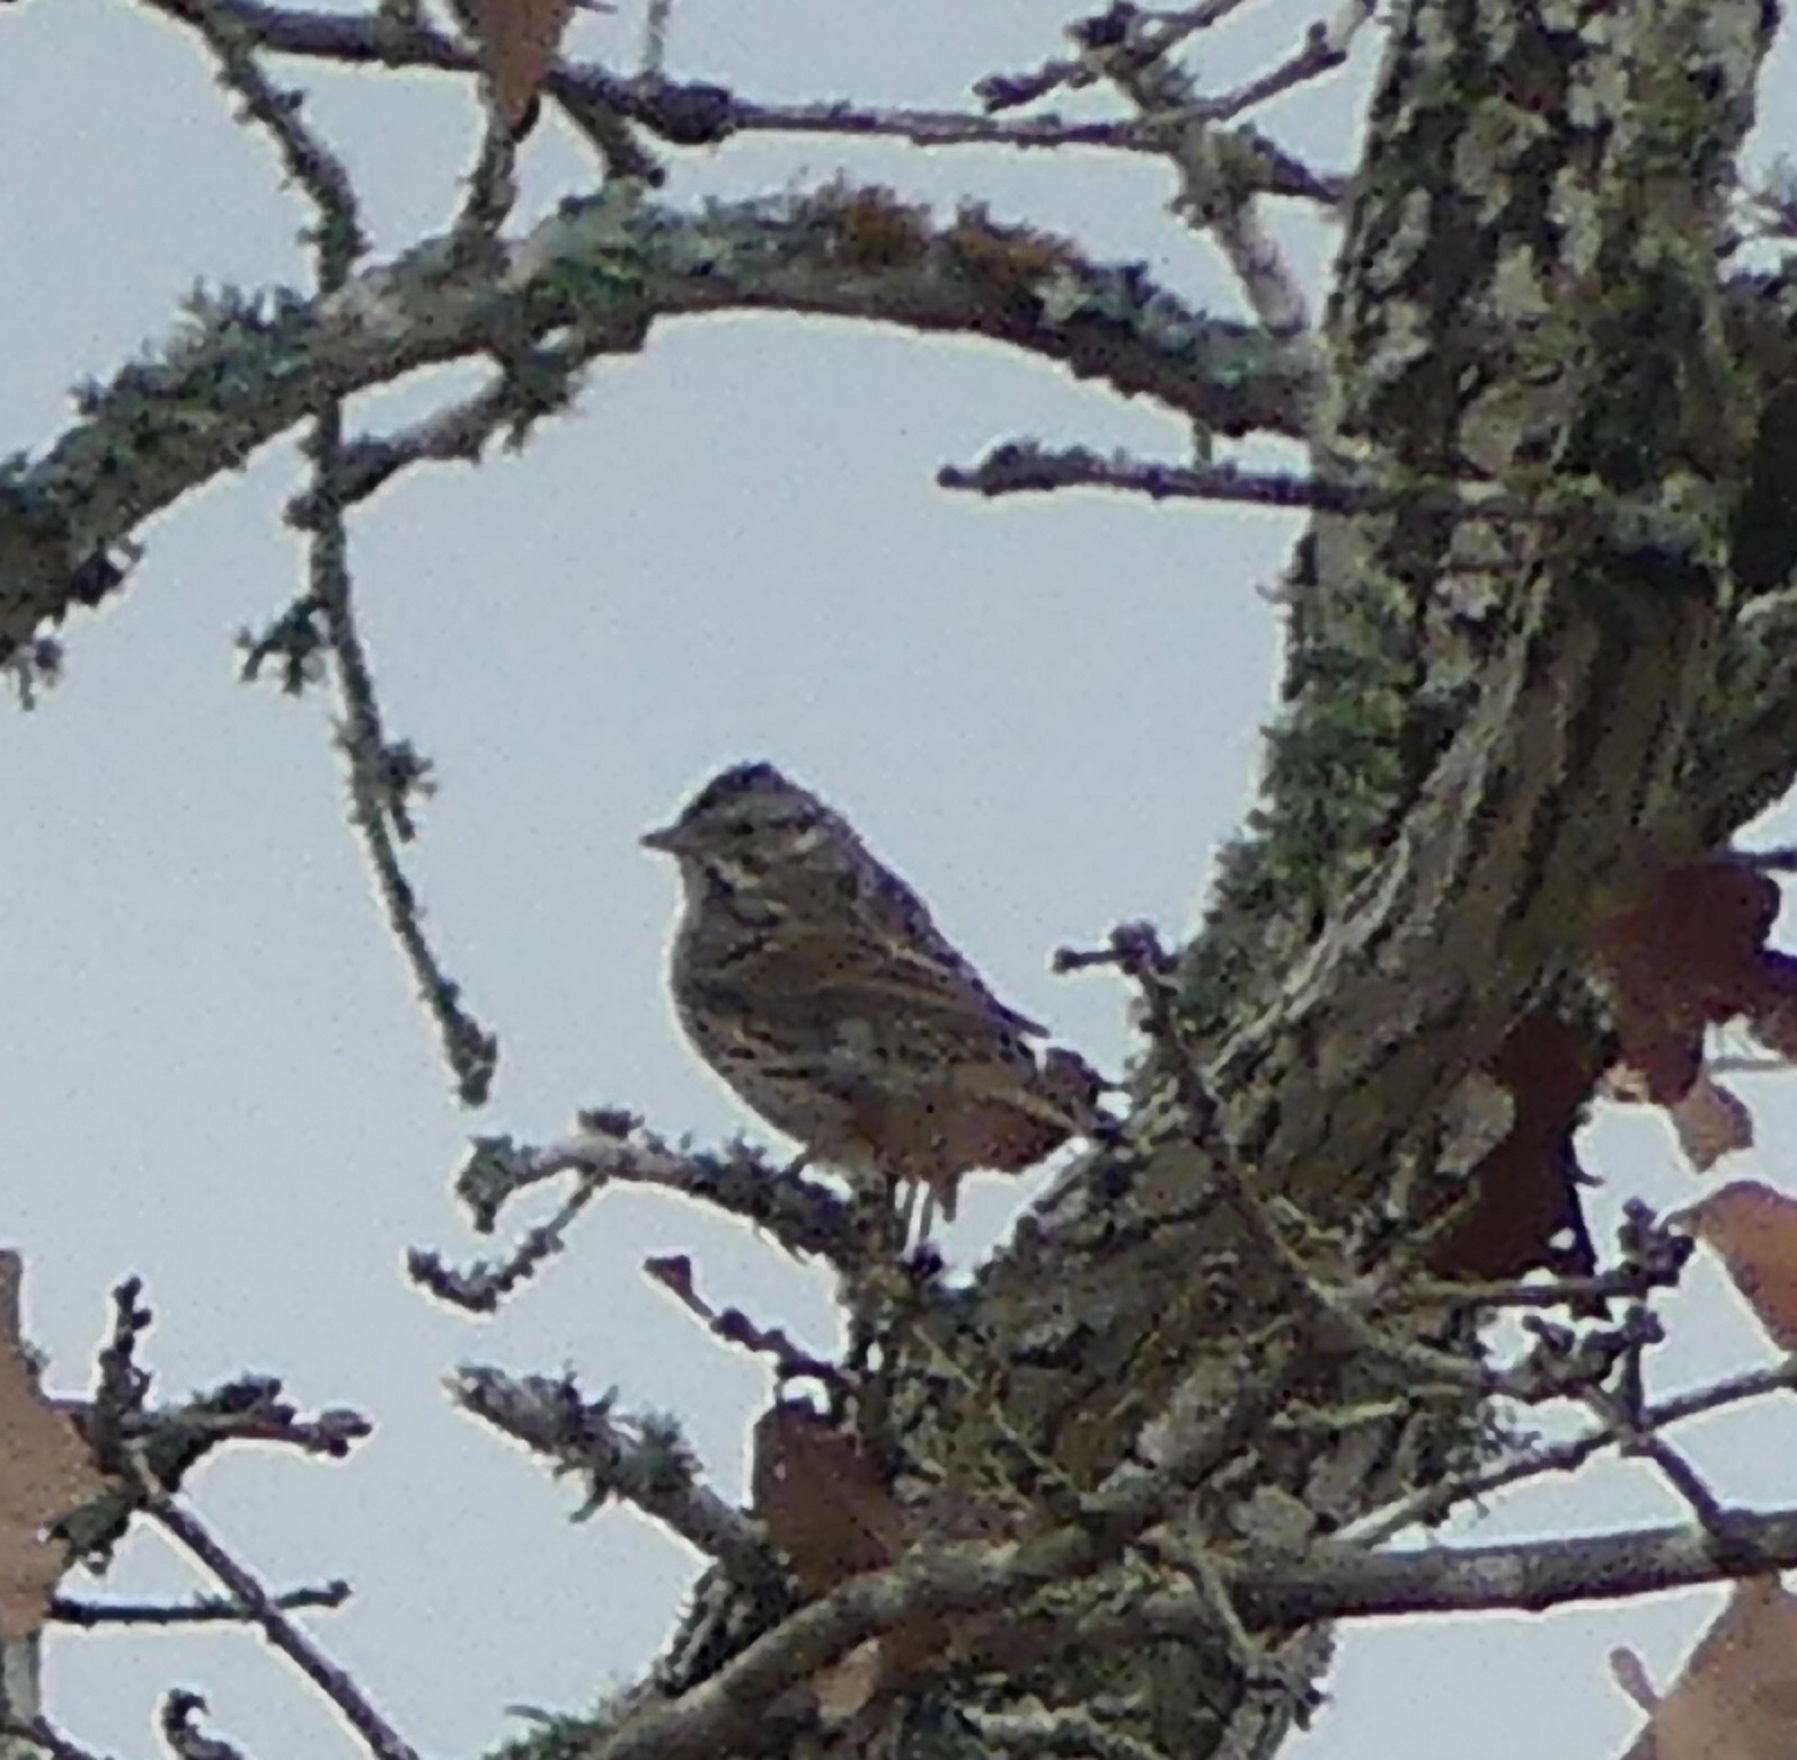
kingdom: Animalia
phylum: Chordata
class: Aves
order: Passeriformes
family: Passerellidae
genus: Melospiza
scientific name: Melospiza melodia
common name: Song sparrow
